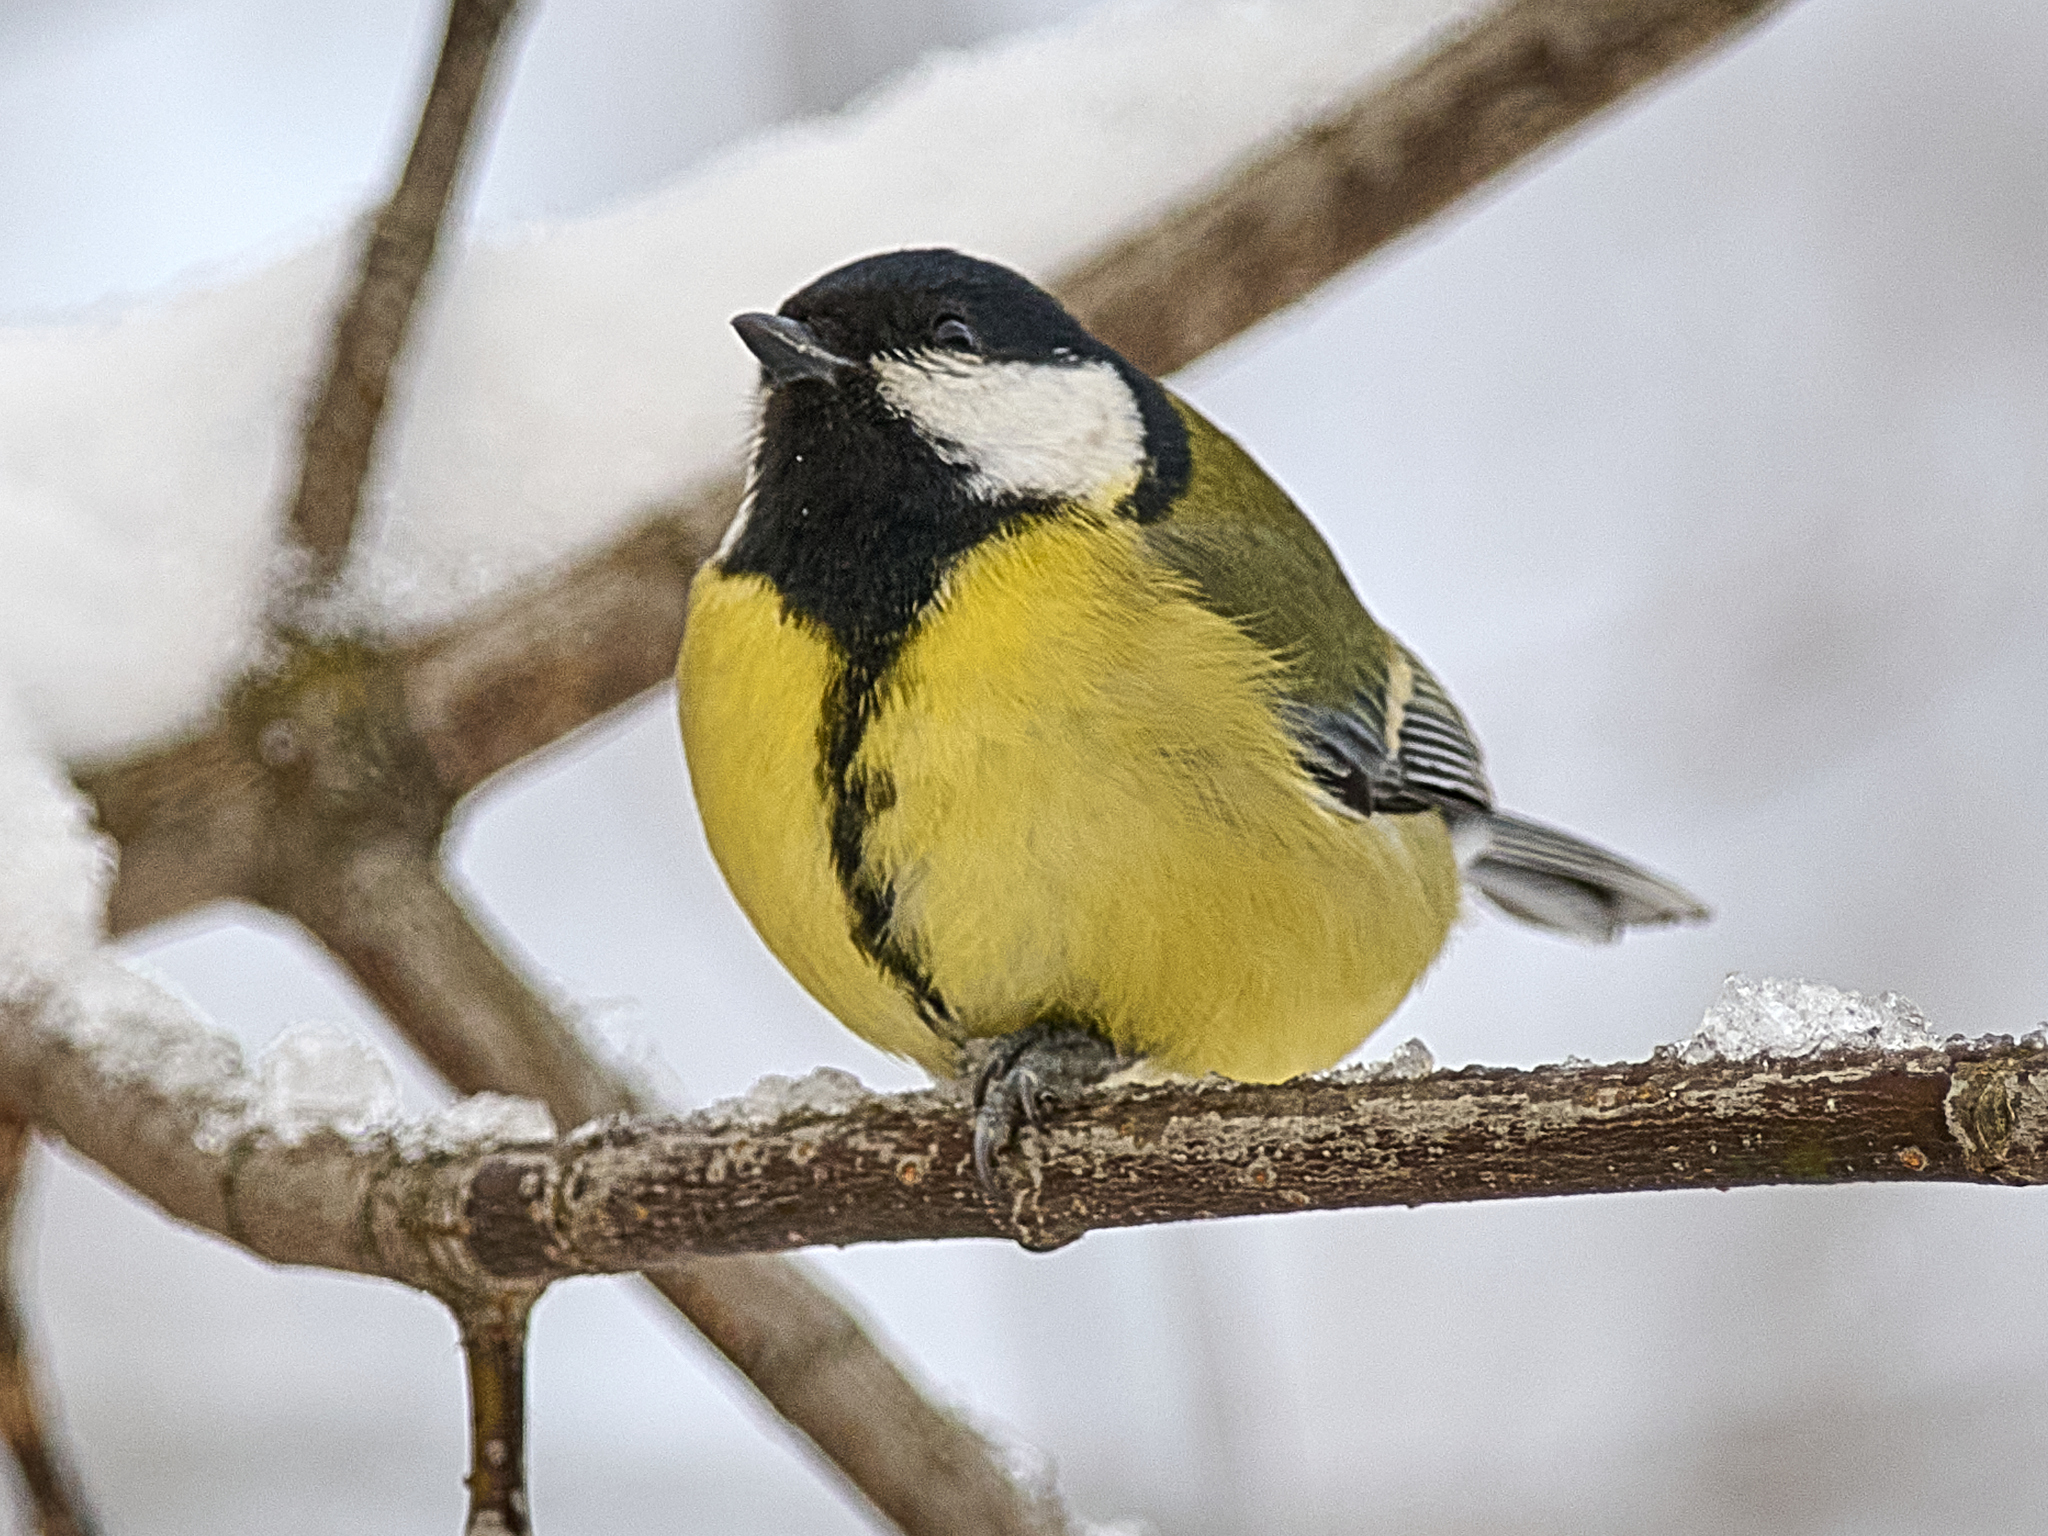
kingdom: Animalia
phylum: Chordata
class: Aves
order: Passeriformes
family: Paridae
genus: Parus
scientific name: Parus major
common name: Great tit
